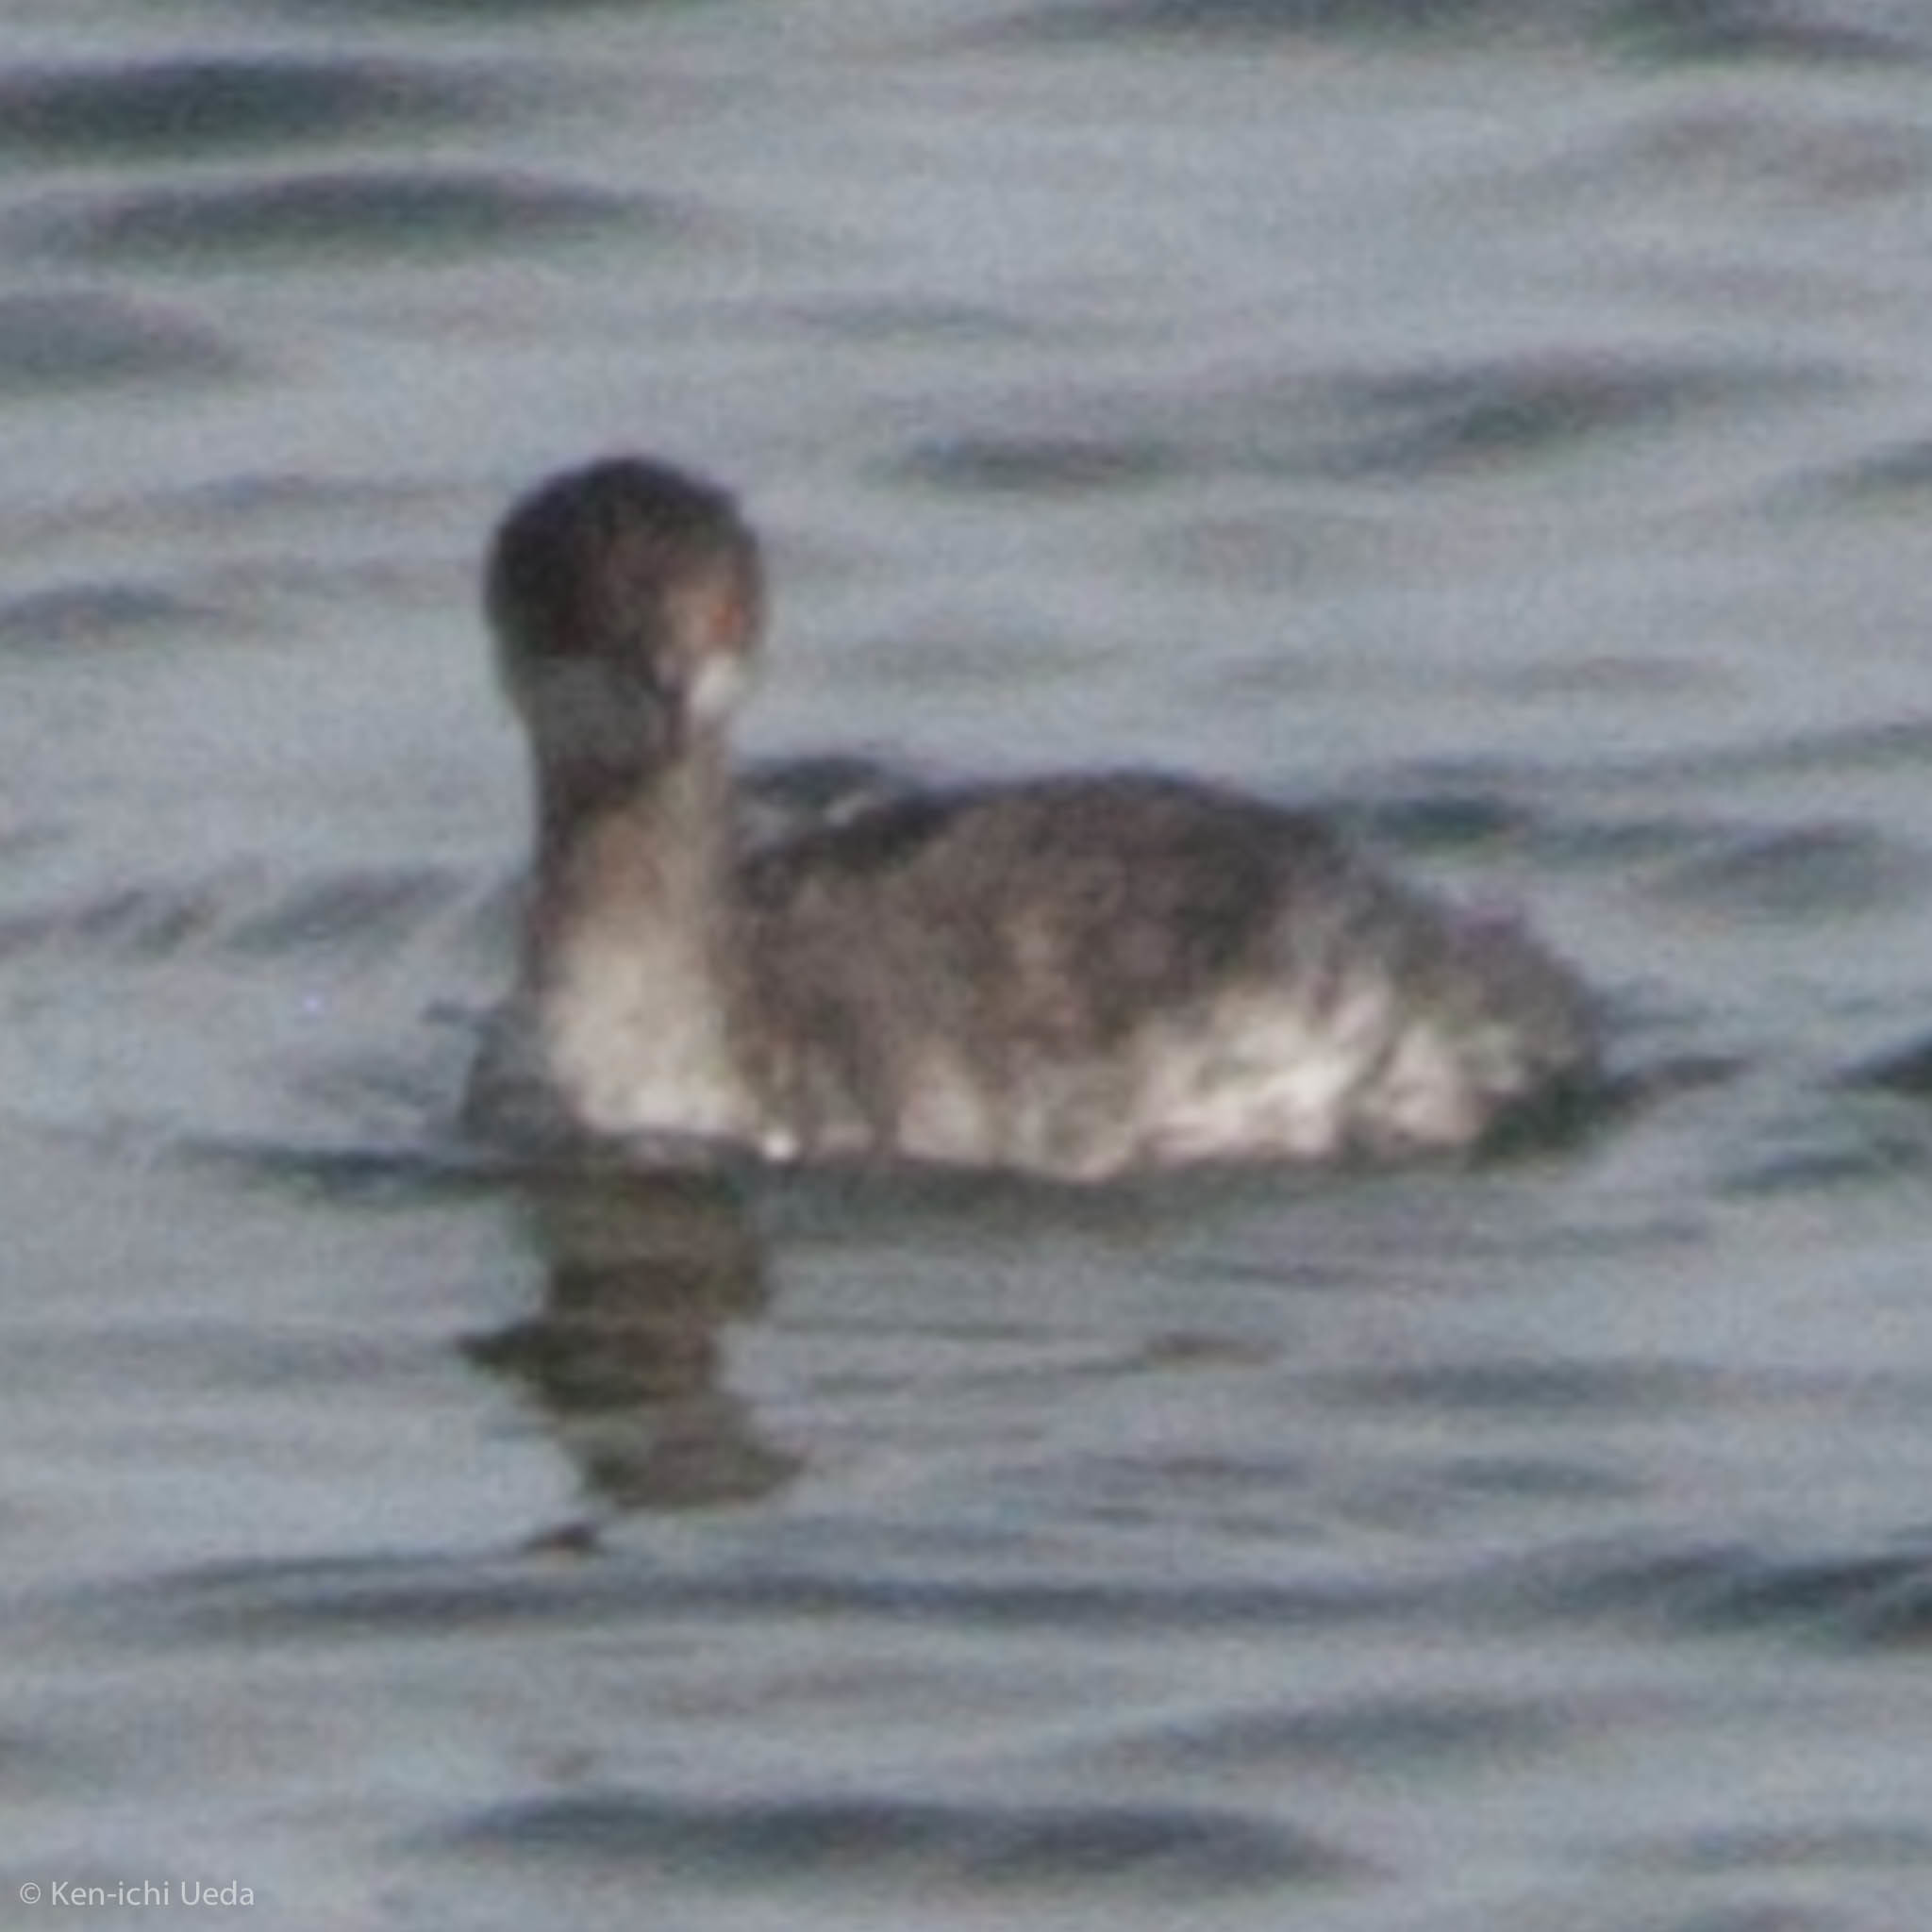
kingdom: Animalia
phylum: Chordata
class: Aves
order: Podicipediformes
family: Podicipedidae
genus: Podiceps
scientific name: Podiceps nigricollis
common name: Black-necked grebe
